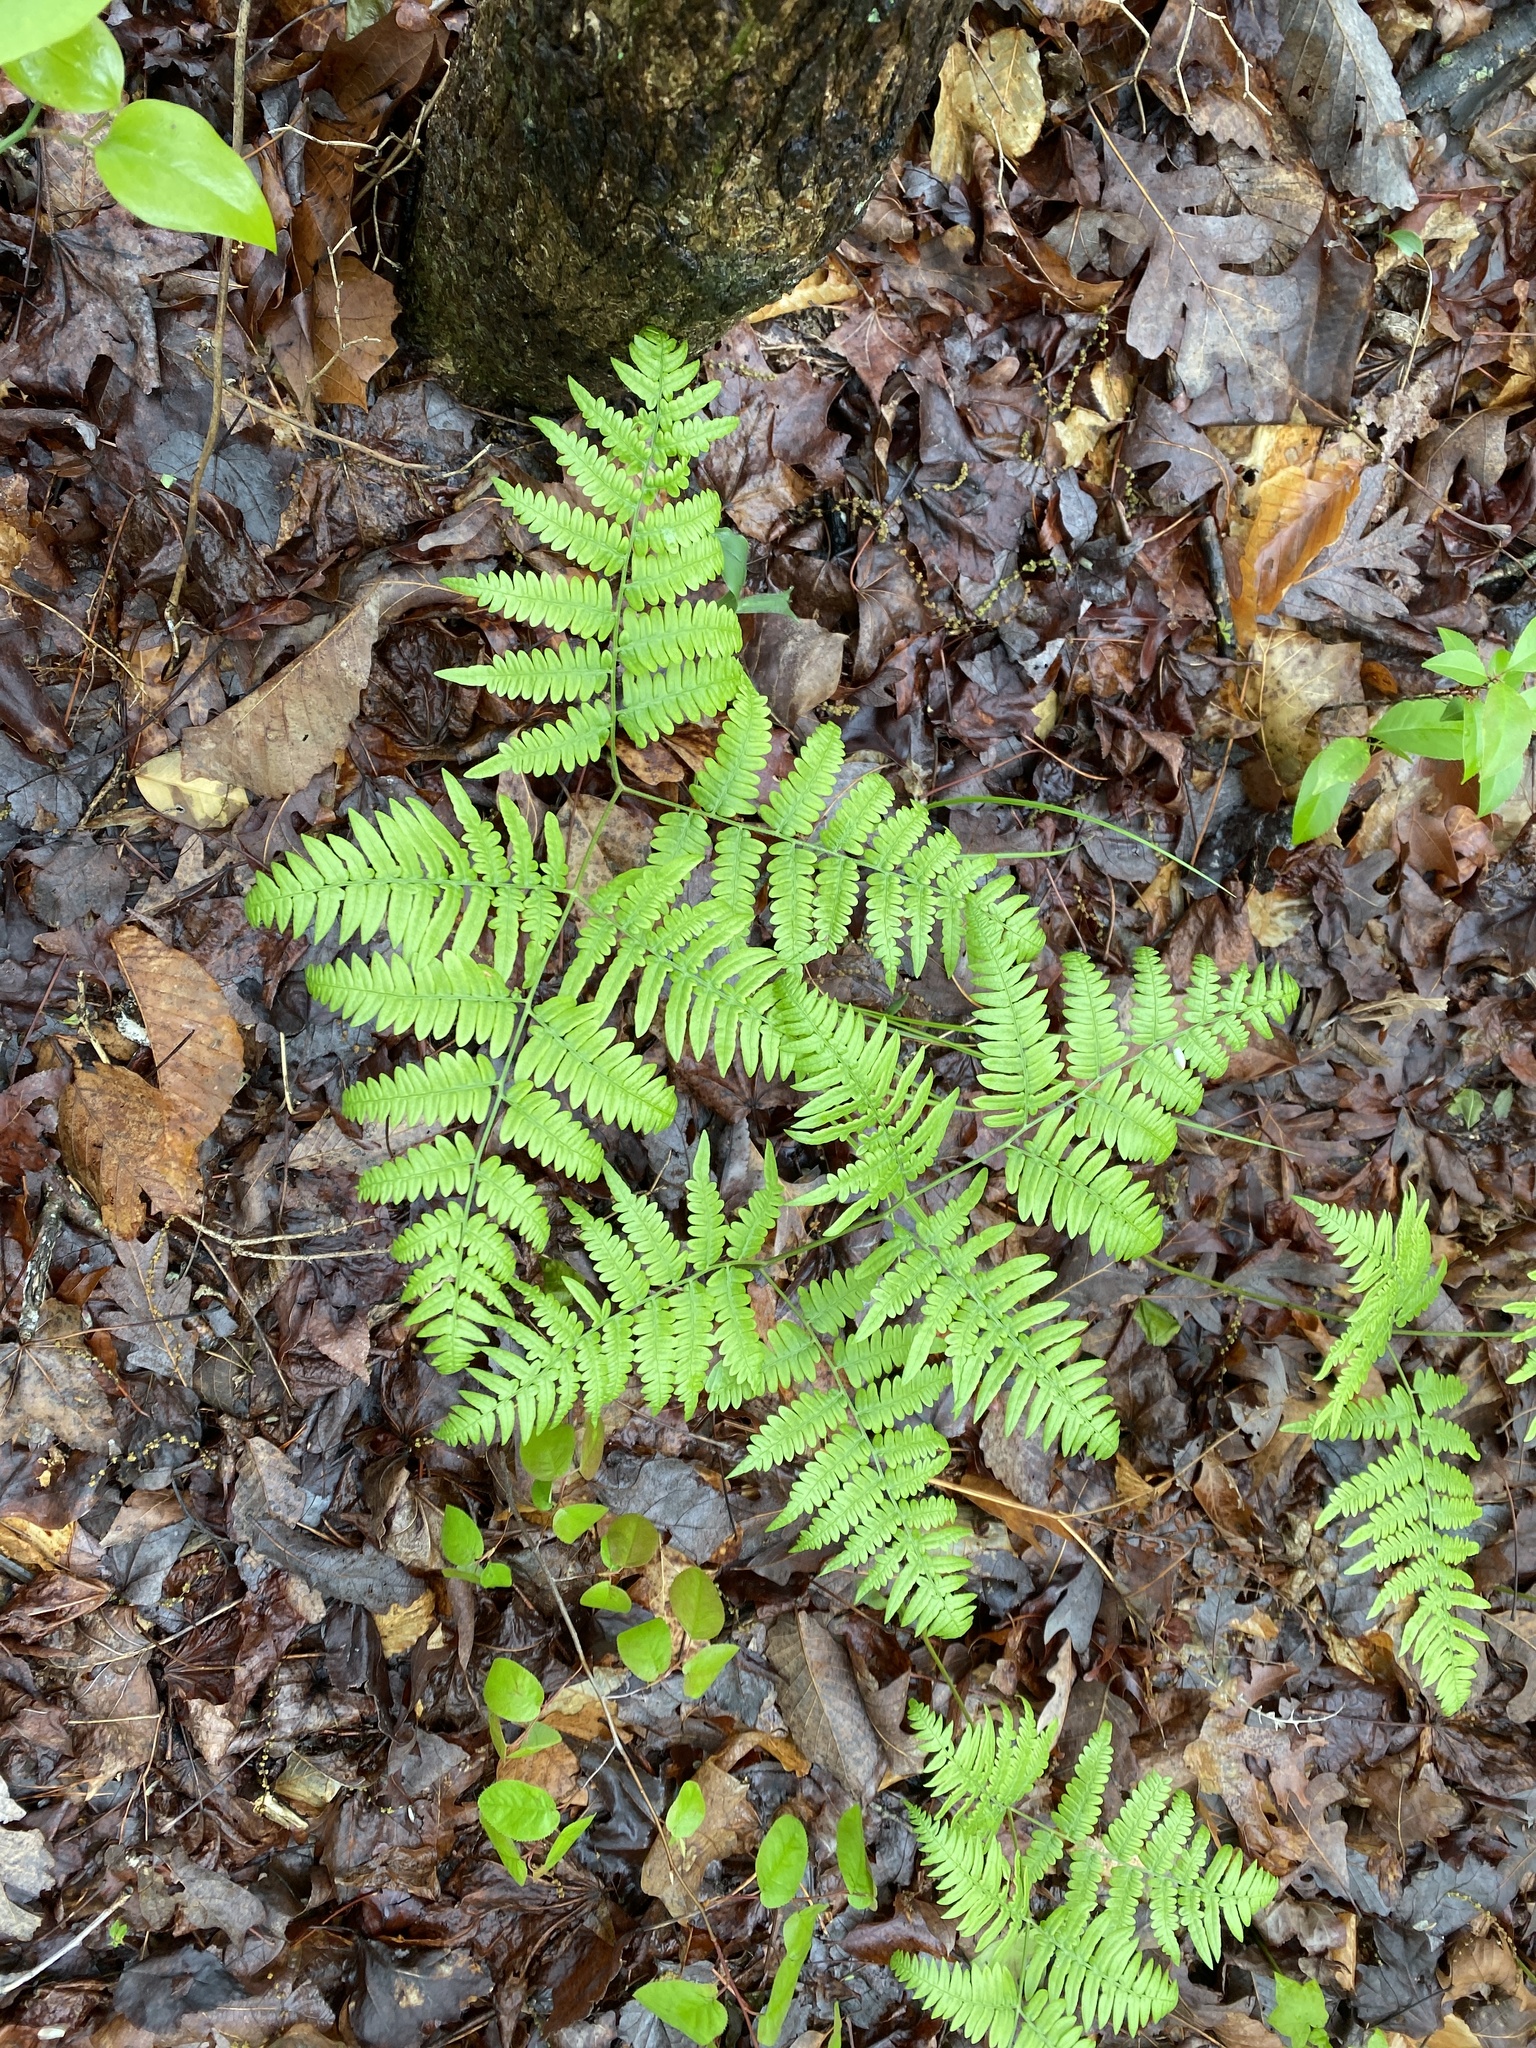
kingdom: Plantae
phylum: Tracheophyta
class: Polypodiopsida
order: Polypodiales
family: Dennstaedtiaceae
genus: Pteridium
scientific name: Pteridium aquilinum
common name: Bracken
